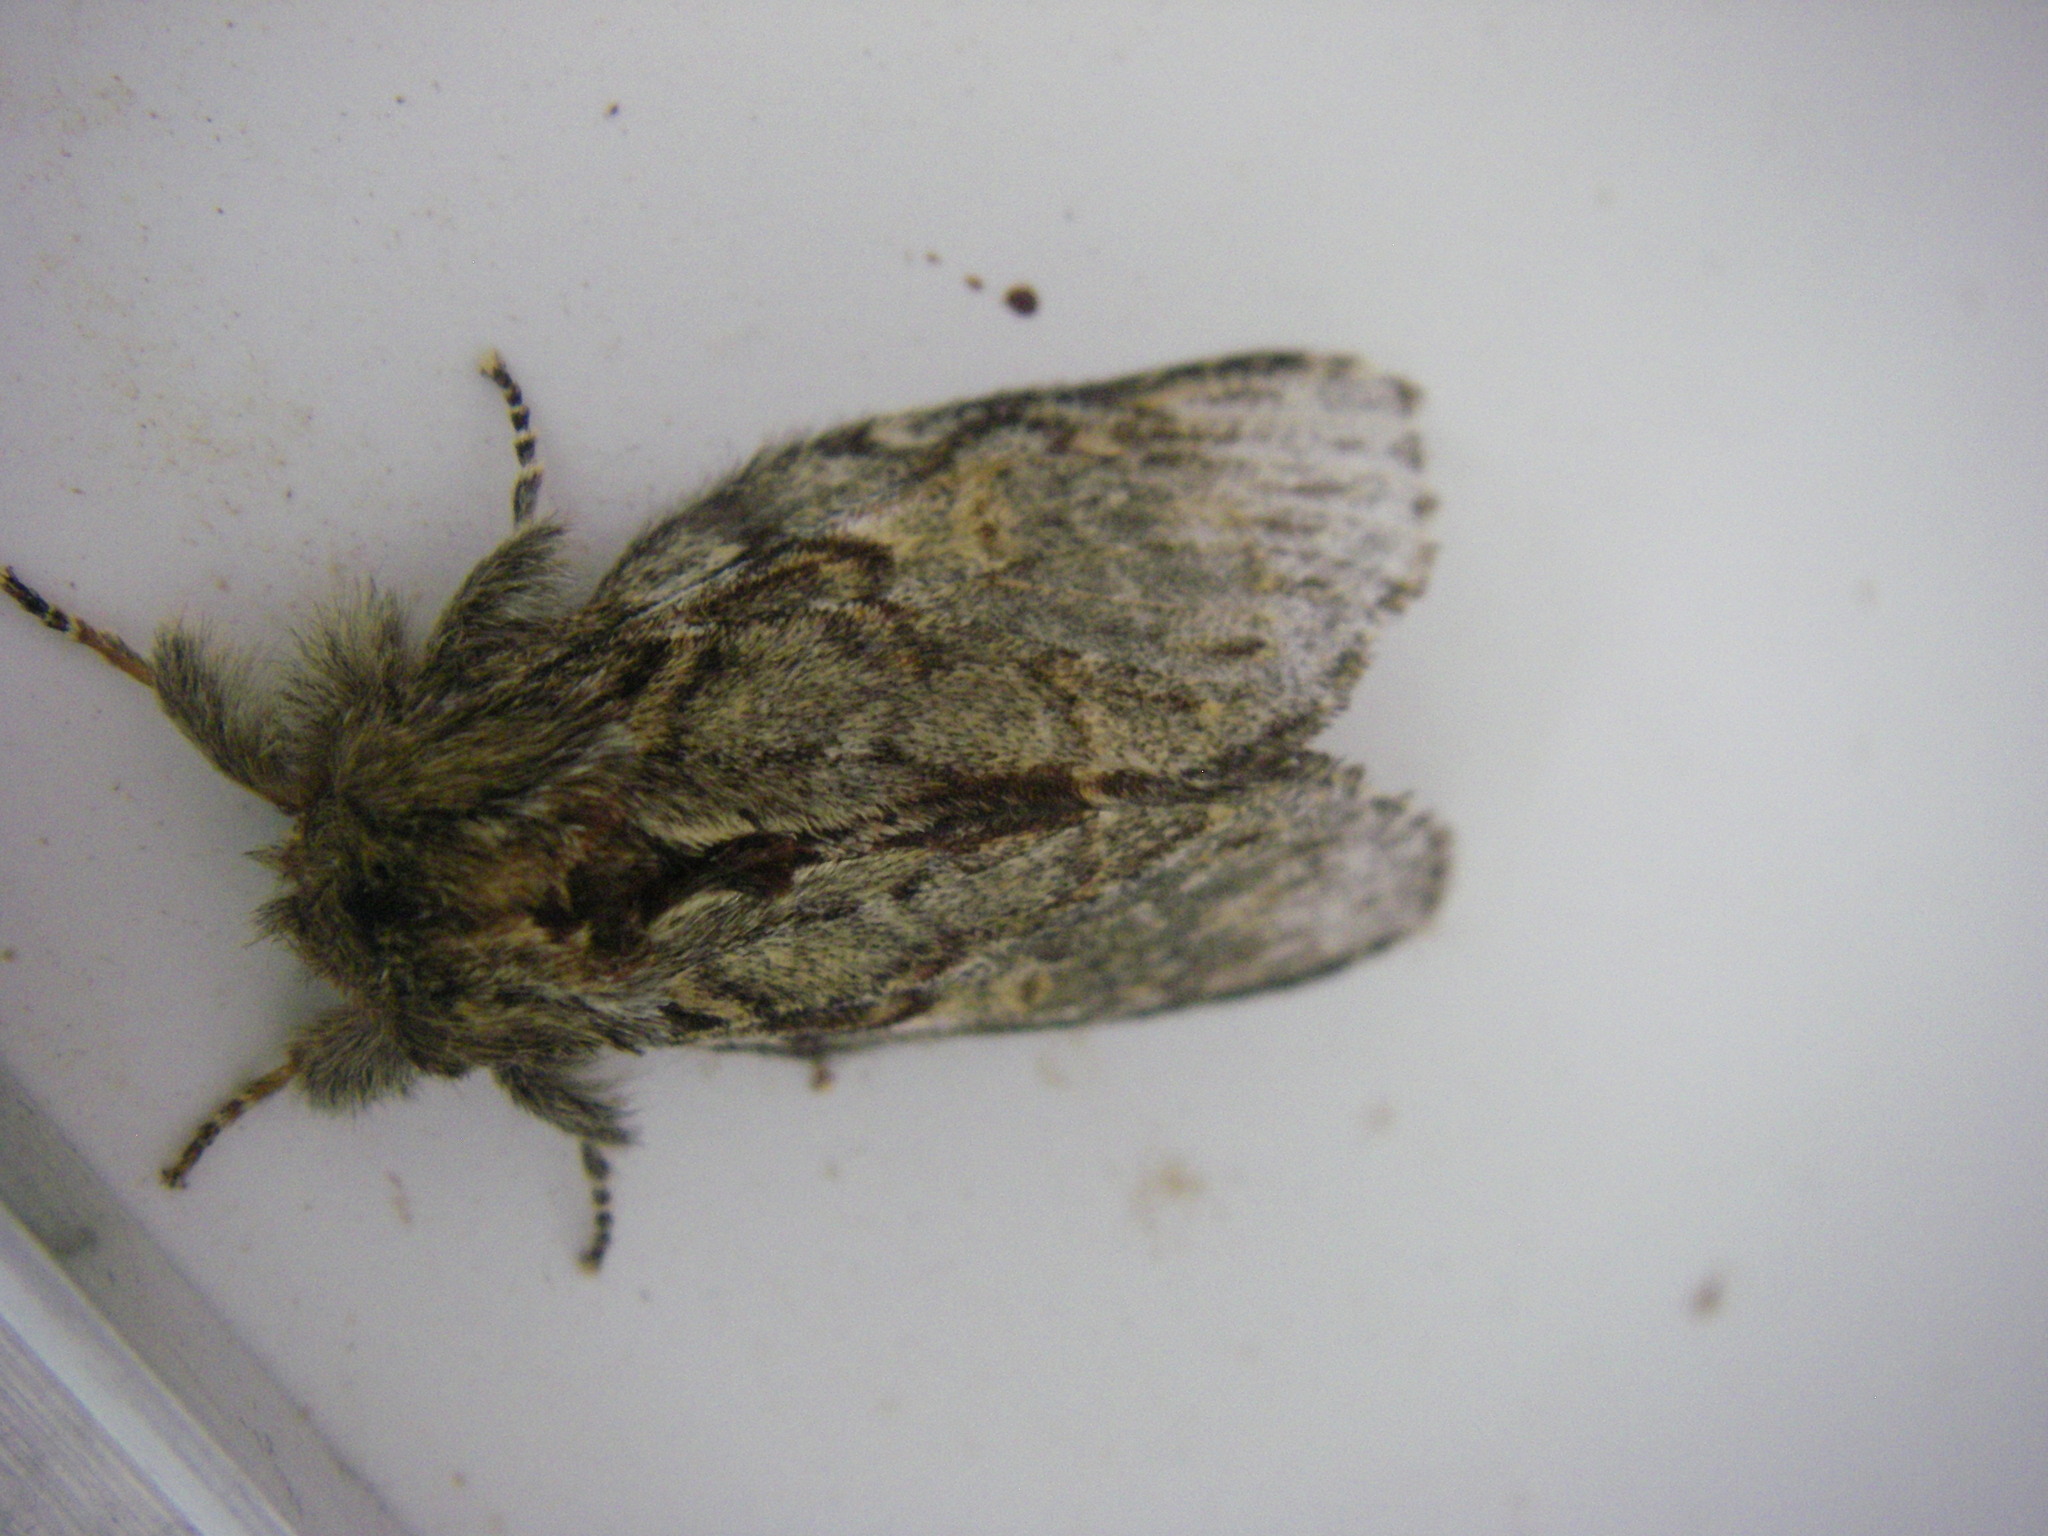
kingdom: Animalia
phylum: Arthropoda
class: Insecta
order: Lepidoptera
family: Notodontidae
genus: Peridea
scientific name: Peridea anceps
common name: Great prominent
